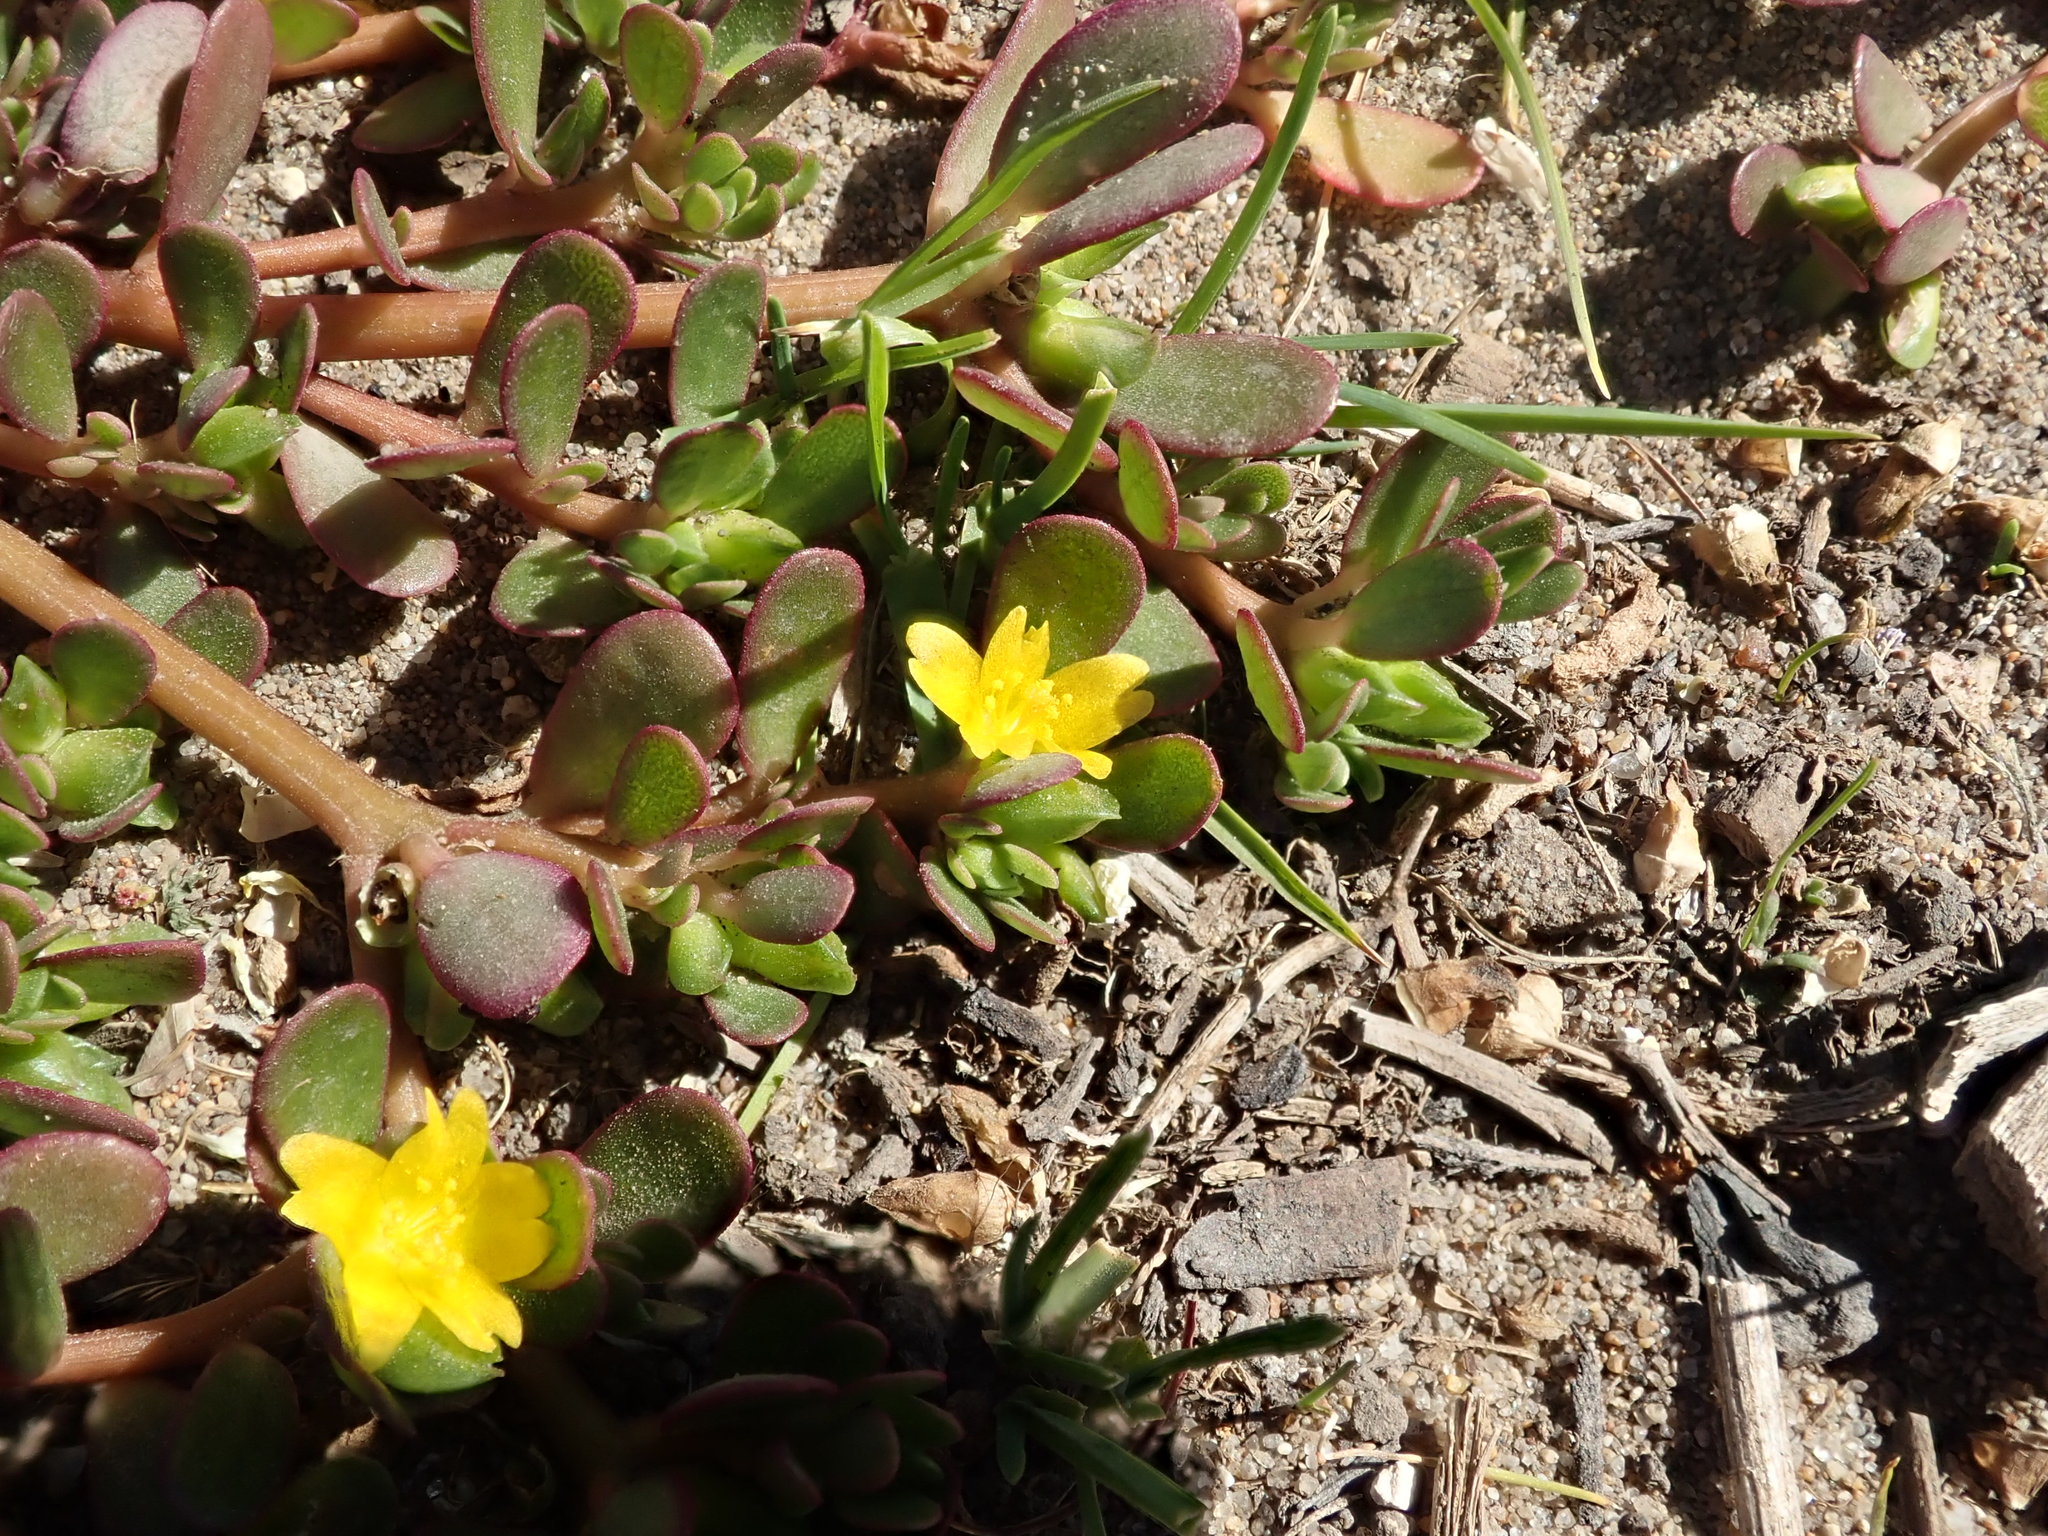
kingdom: Plantae
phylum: Tracheophyta
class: Magnoliopsida
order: Caryophyllales
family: Portulacaceae
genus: Portulaca
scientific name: Portulaca oleracea
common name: Common purslane
